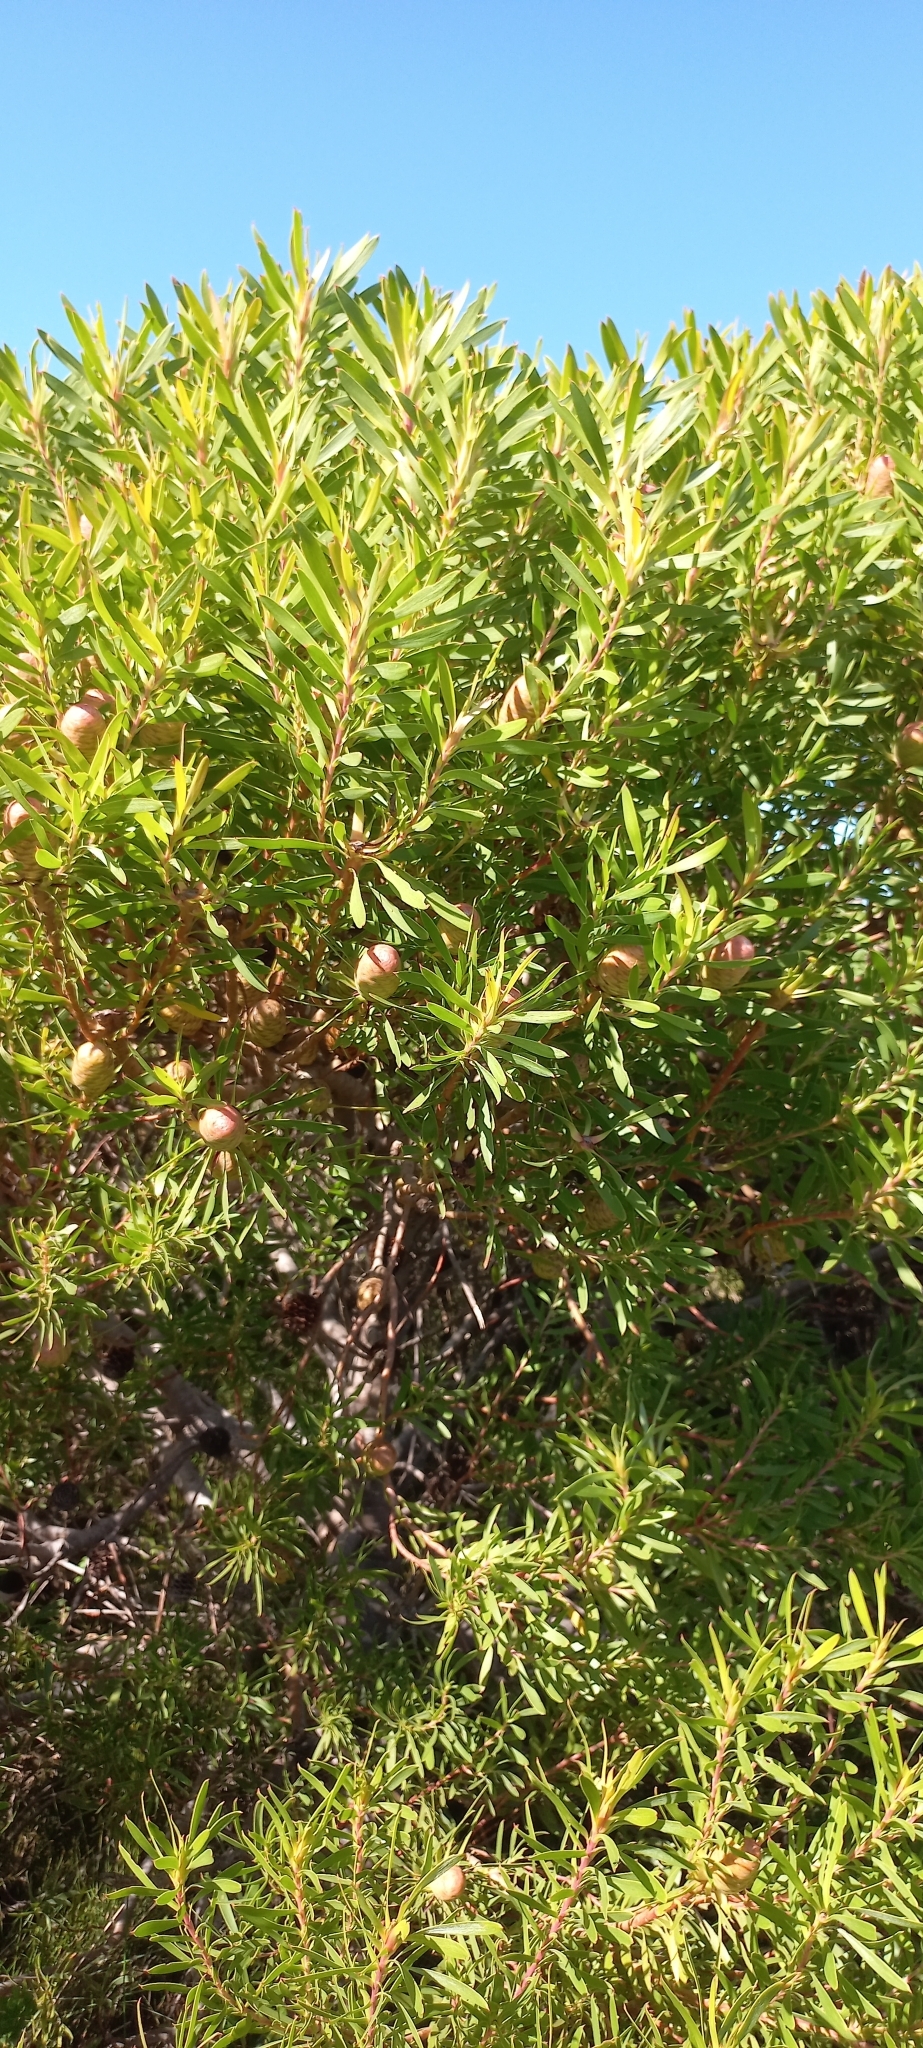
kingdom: Plantae
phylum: Tracheophyta
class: Magnoliopsida
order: Proteales
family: Proteaceae
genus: Leucadendron
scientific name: Leucadendron coniferum
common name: Dune conebush
